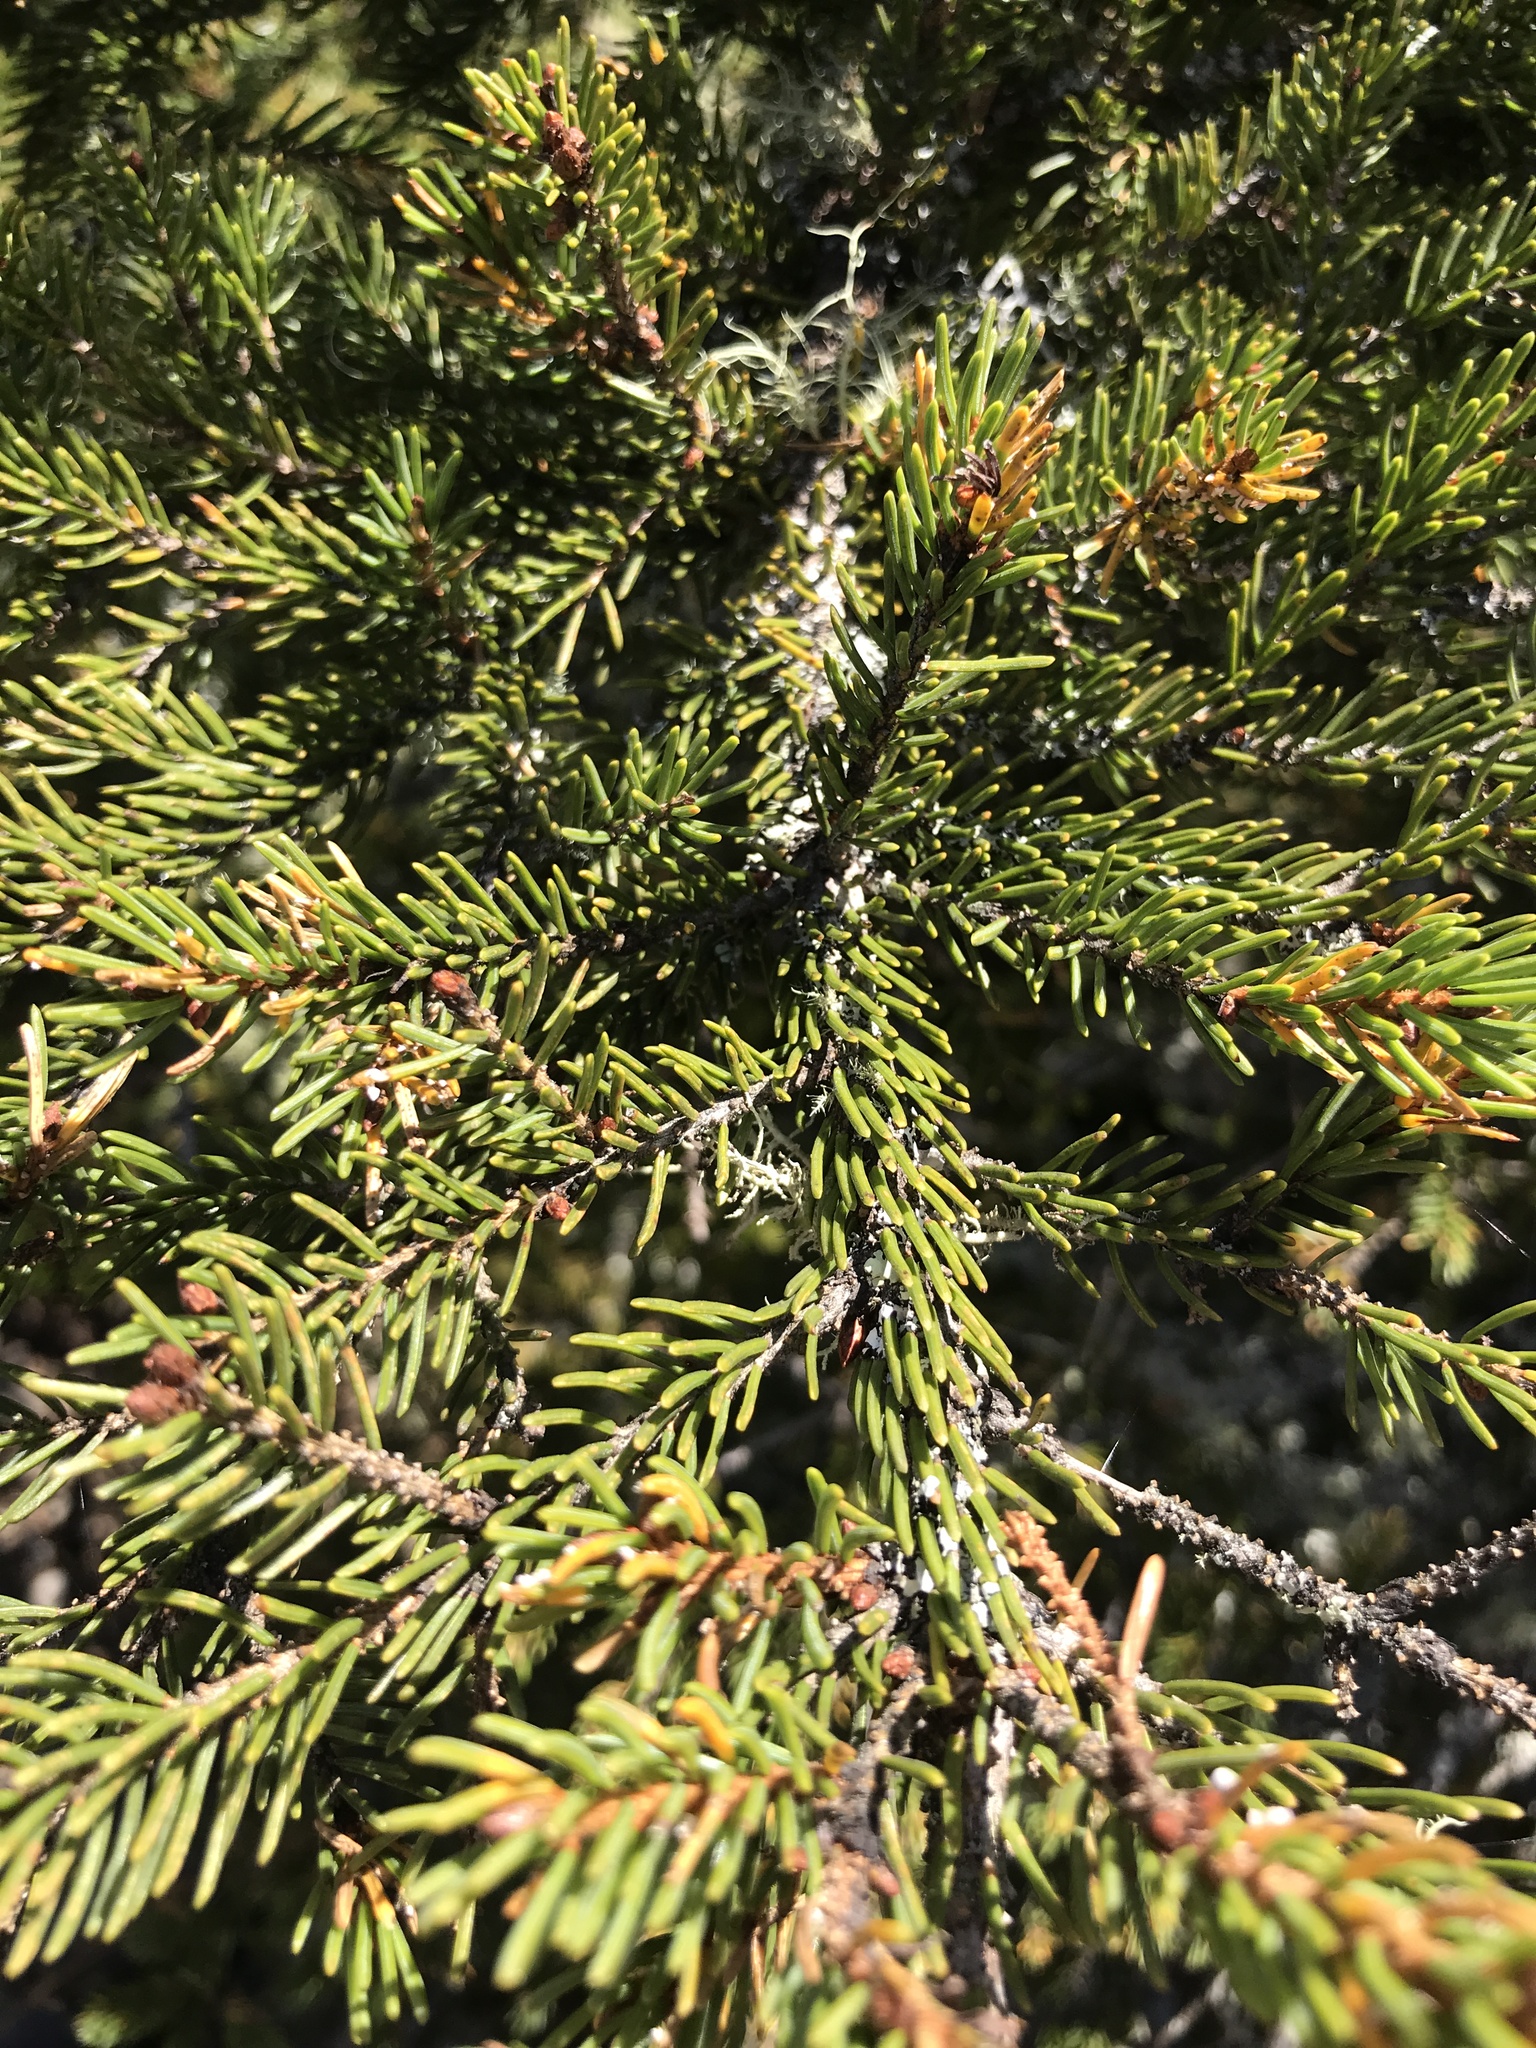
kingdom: Plantae
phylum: Tracheophyta
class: Pinopsida
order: Pinales
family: Pinaceae
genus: Picea
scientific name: Picea rubens
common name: Red spruce
